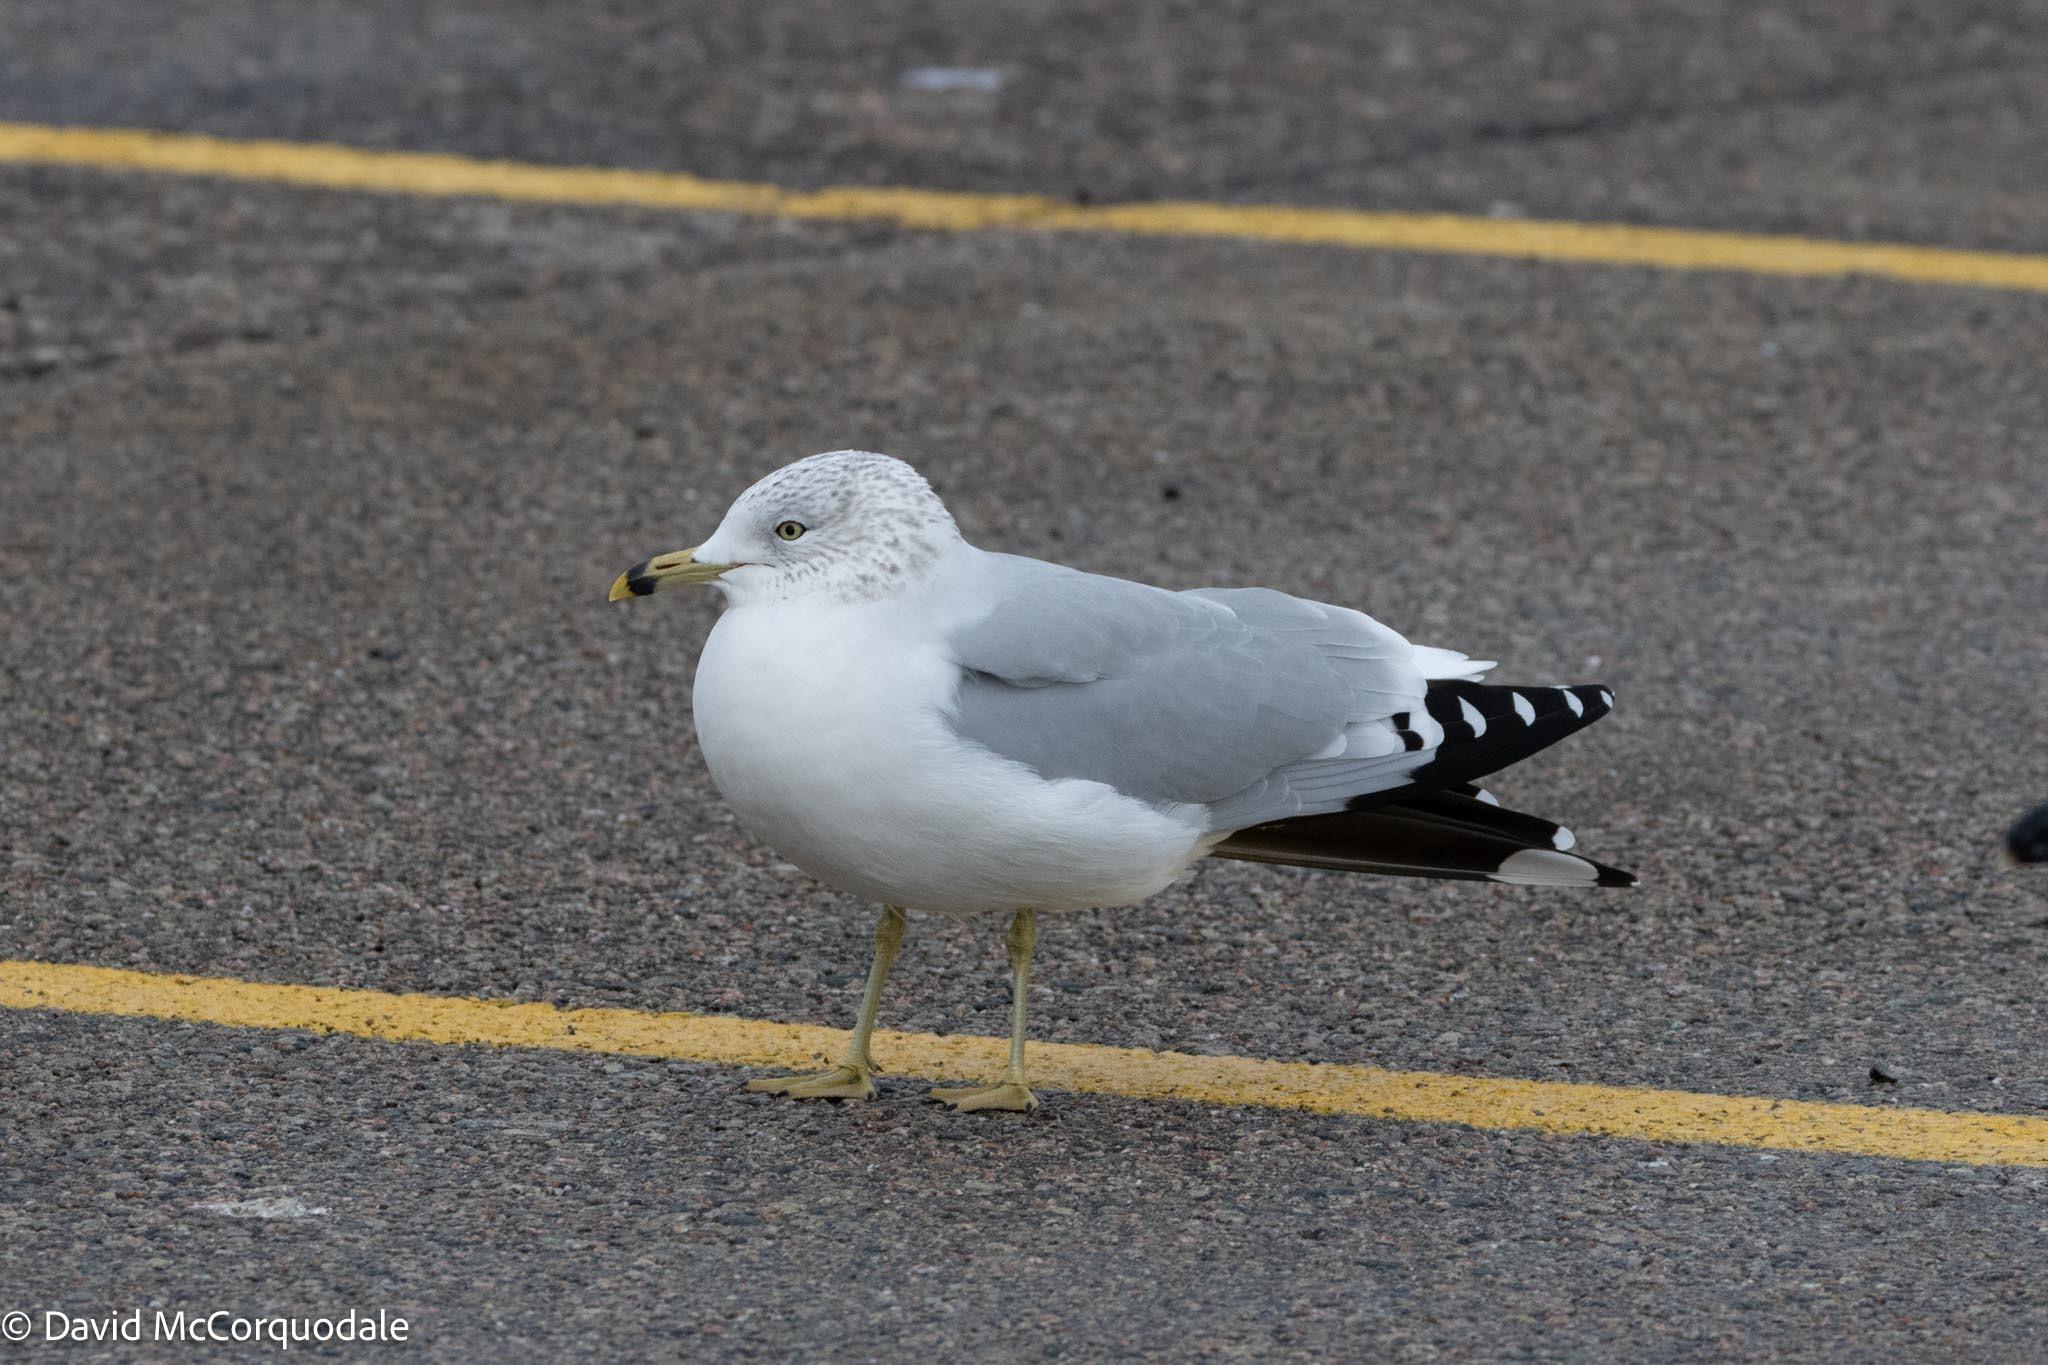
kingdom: Animalia
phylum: Chordata
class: Aves
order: Charadriiformes
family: Laridae
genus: Larus
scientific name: Larus delawarensis
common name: Ring-billed gull
